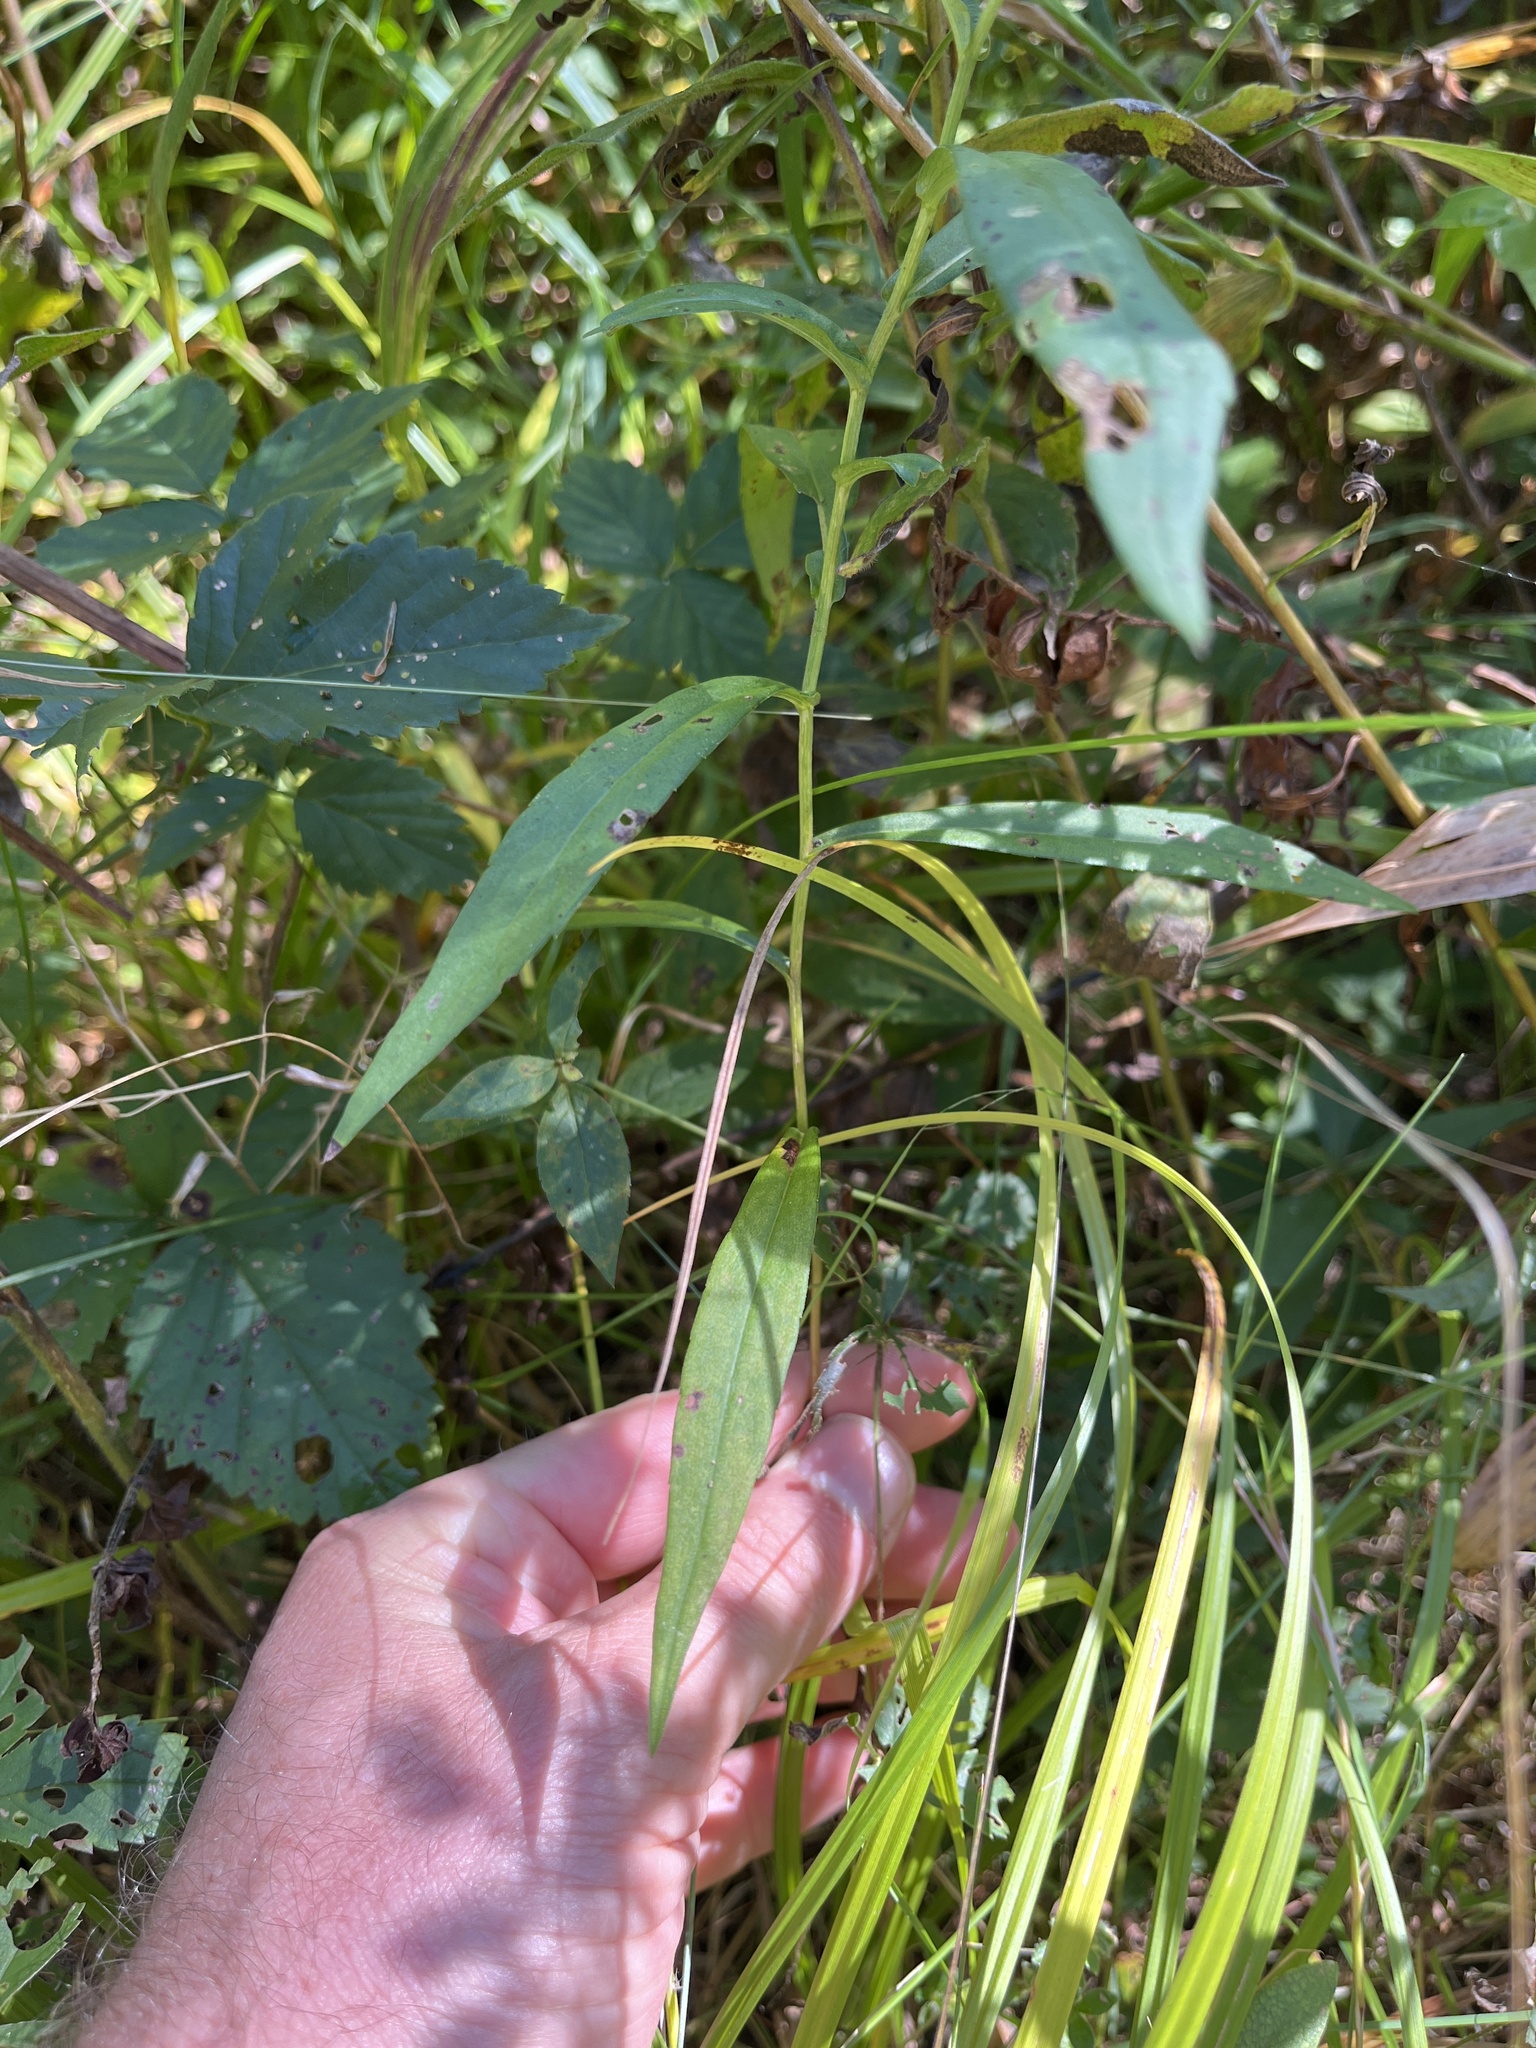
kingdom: Plantae
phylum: Tracheophyta
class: Magnoliopsida
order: Asterales
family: Asteraceae
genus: Symphyotrichum
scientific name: Symphyotrichum novi-belgii
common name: Michaelmas daisy
